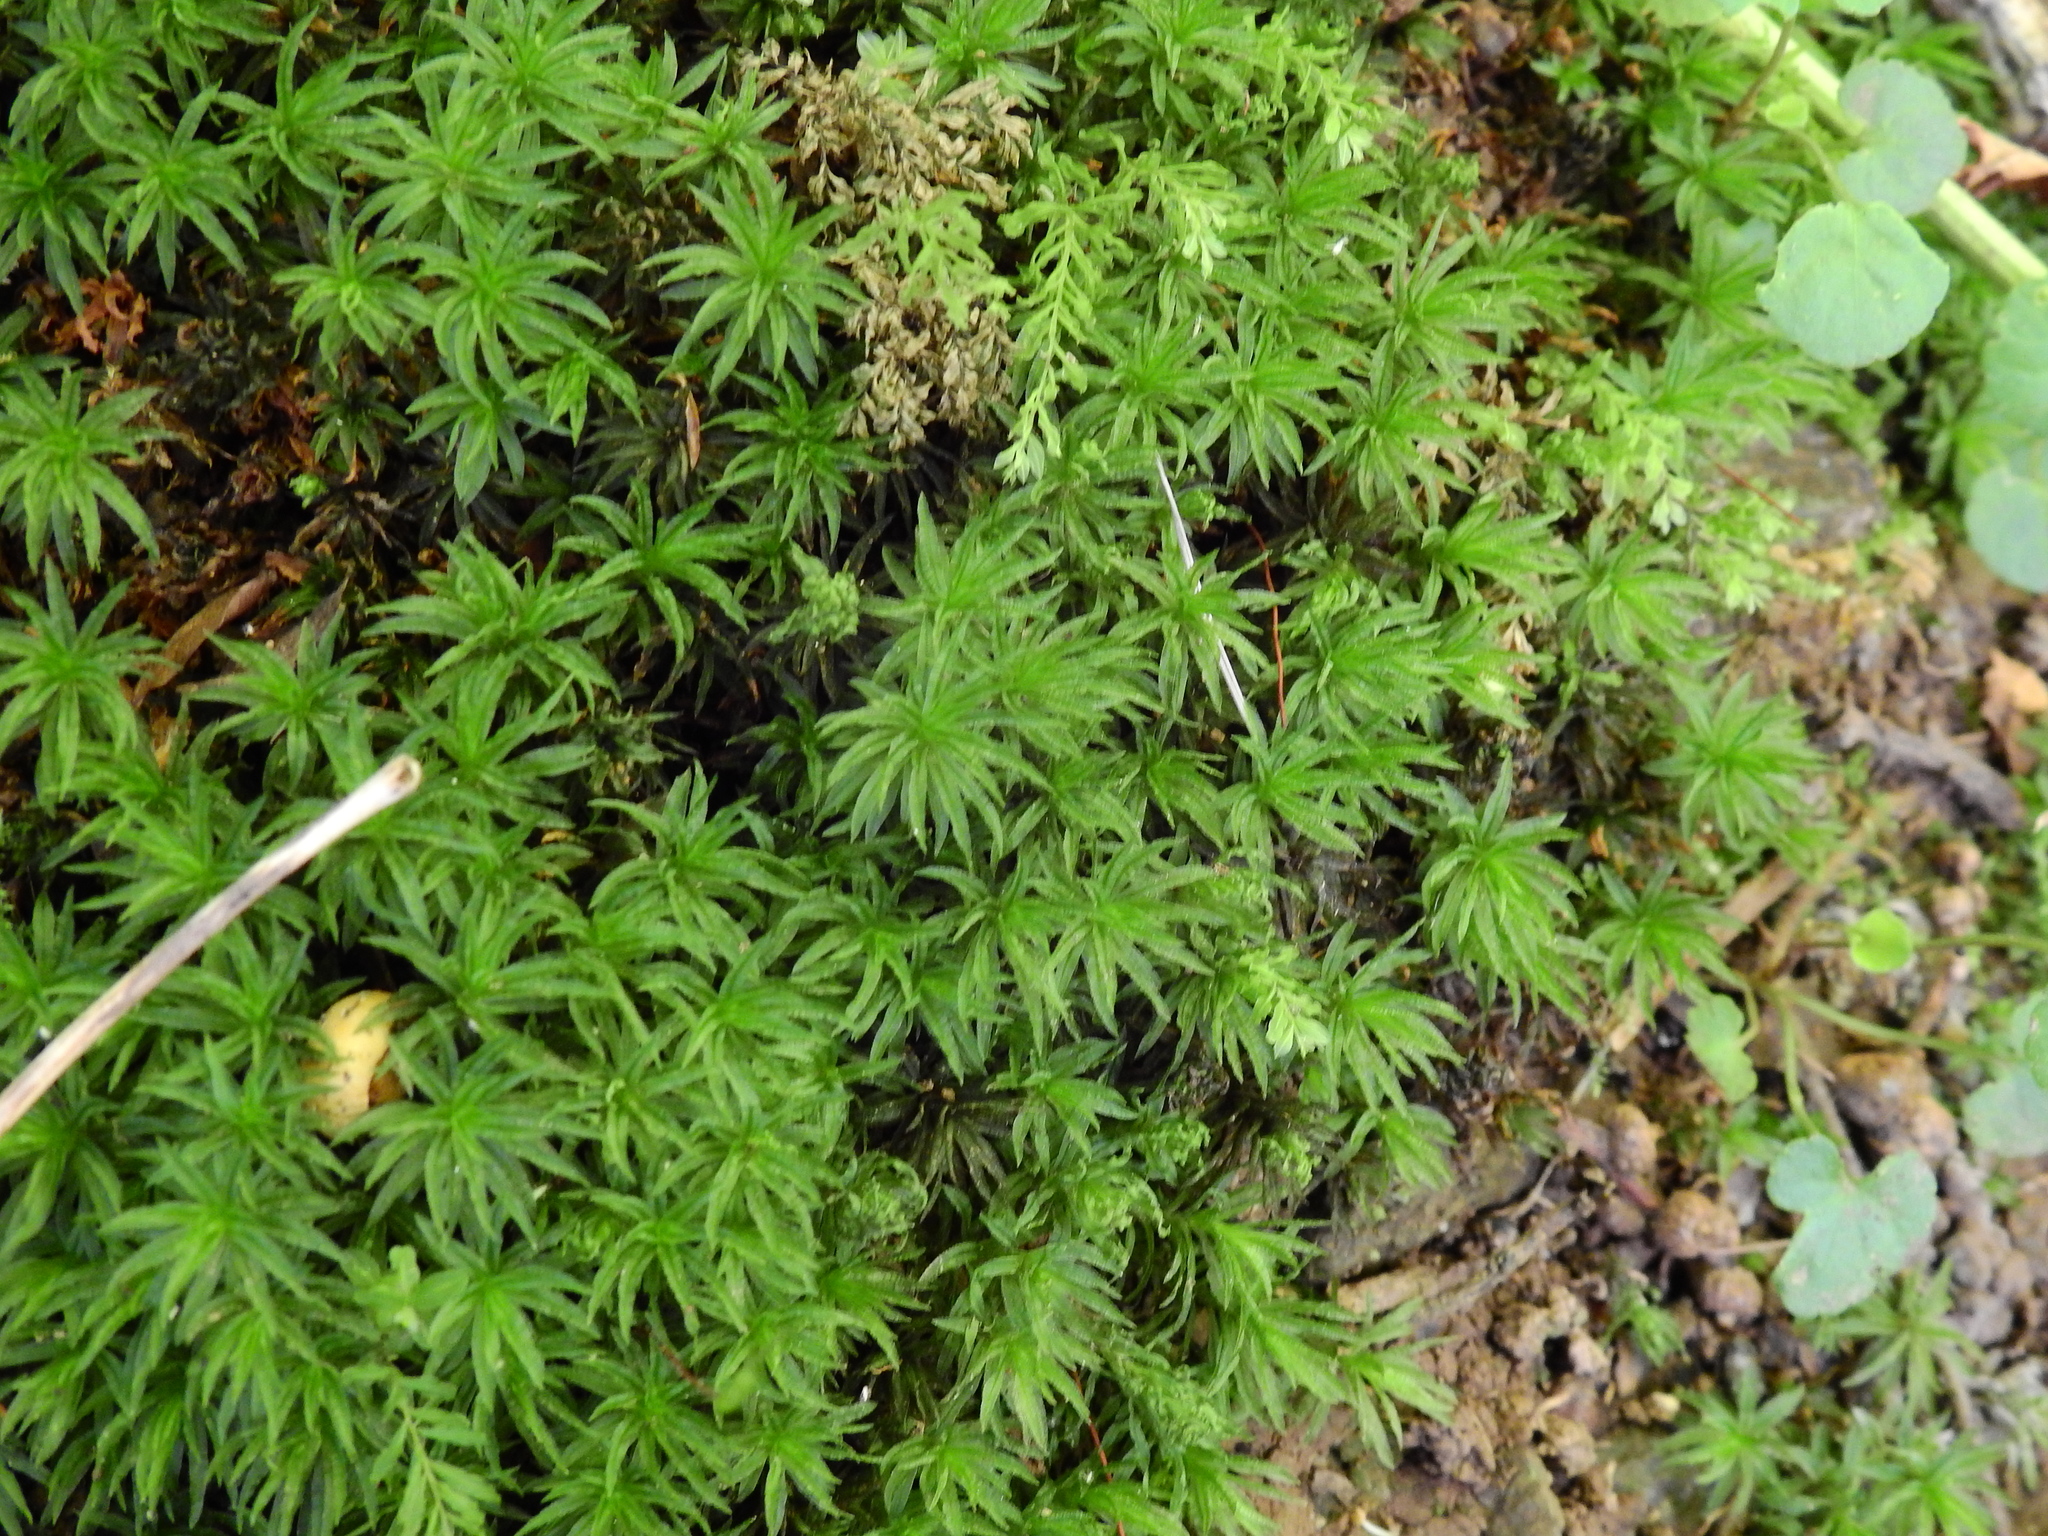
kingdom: Plantae
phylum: Bryophyta
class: Polytrichopsida
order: Polytrichales
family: Polytrichaceae
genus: Atrichum
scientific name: Atrichum undulatum
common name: Common smoothcap
